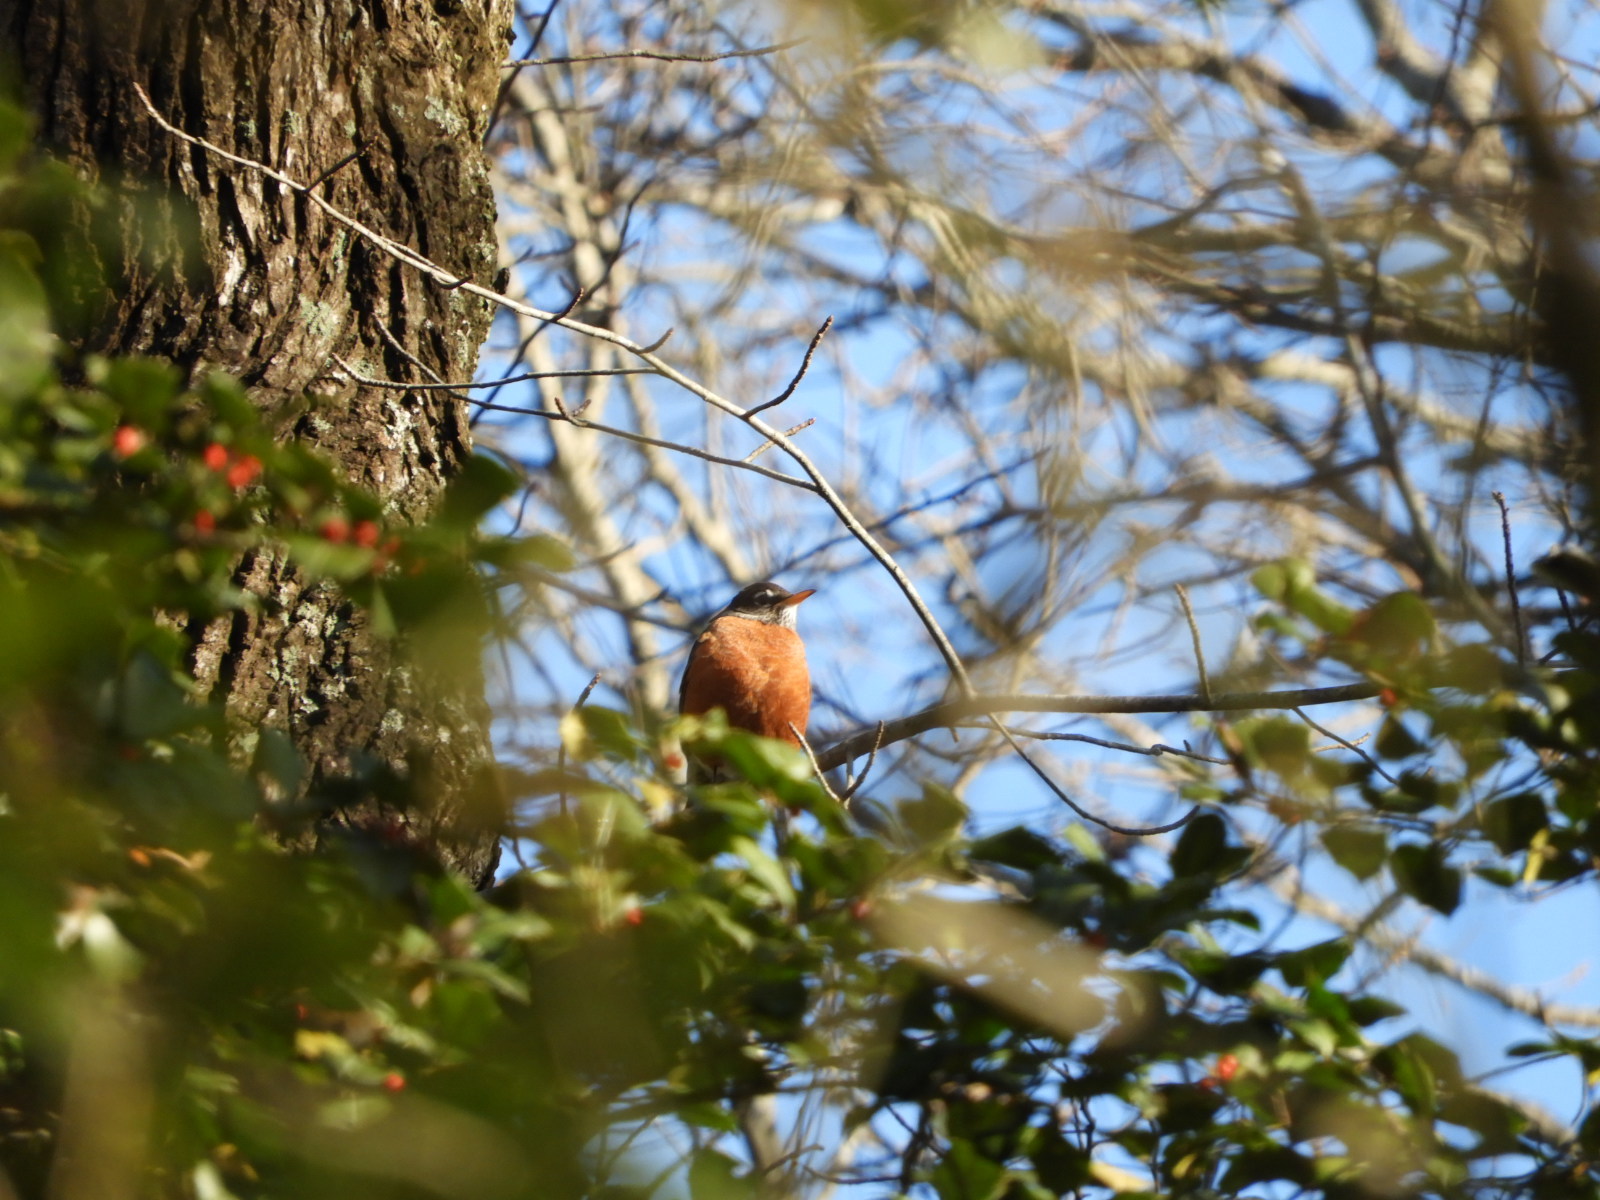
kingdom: Animalia
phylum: Chordata
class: Aves
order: Passeriformes
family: Turdidae
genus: Turdus
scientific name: Turdus migratorius
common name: American robin
